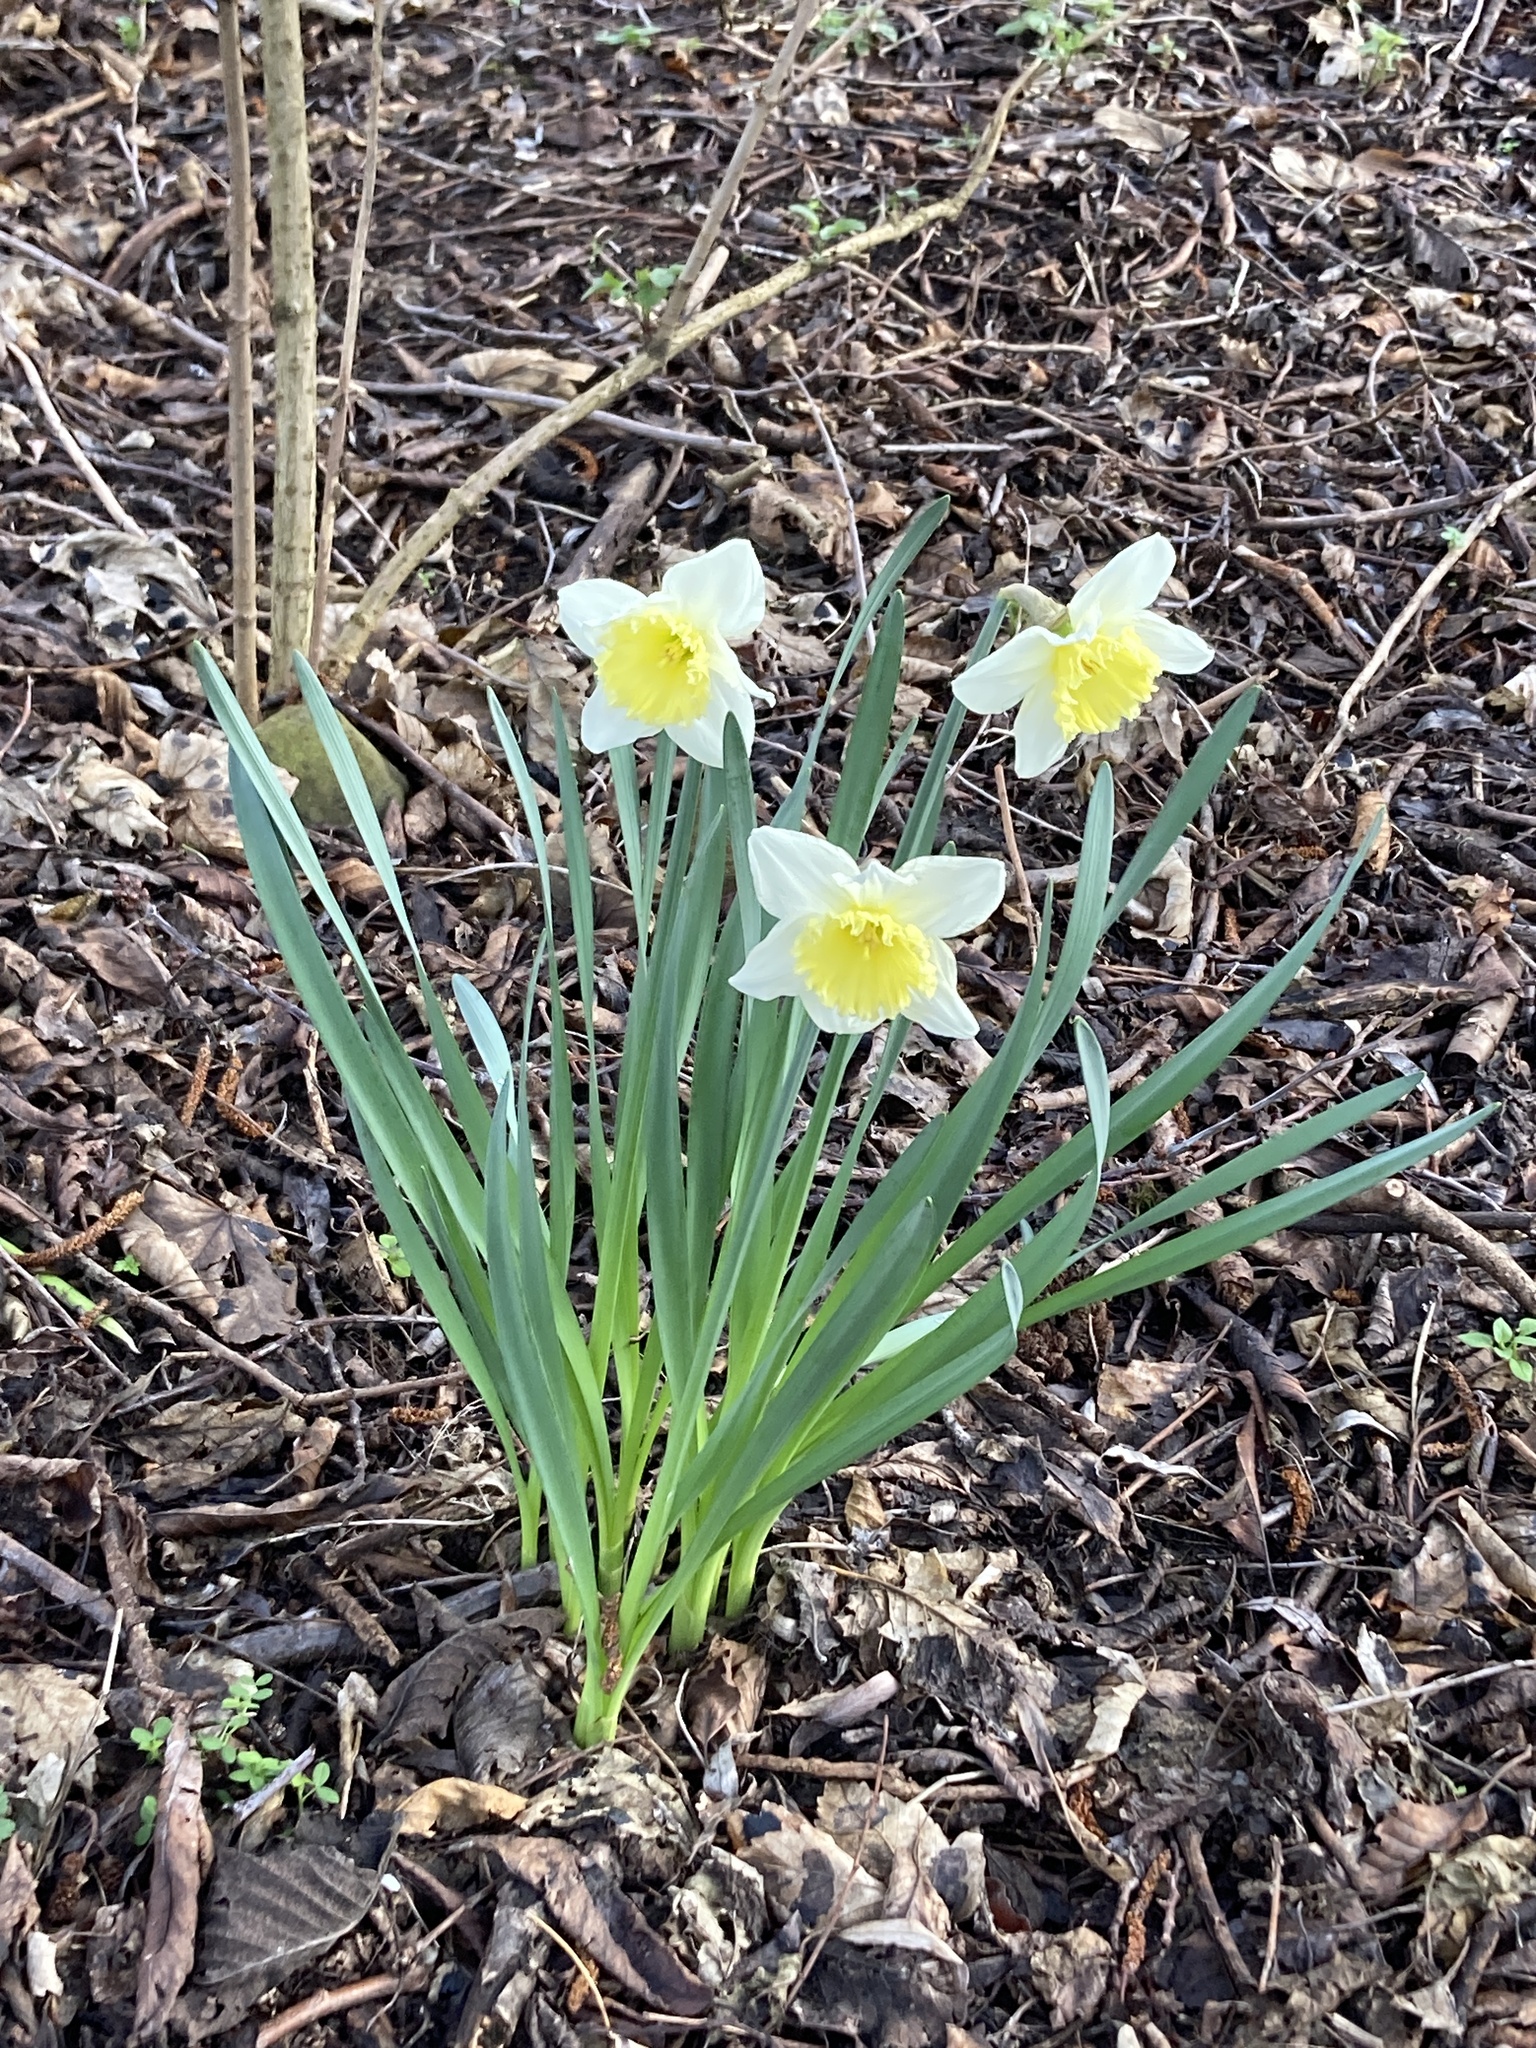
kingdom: Plantae
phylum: Tracheophyta
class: Liliopsida
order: Asparagales
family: Amaryllidaceae
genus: Narcissus
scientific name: Narcissus
